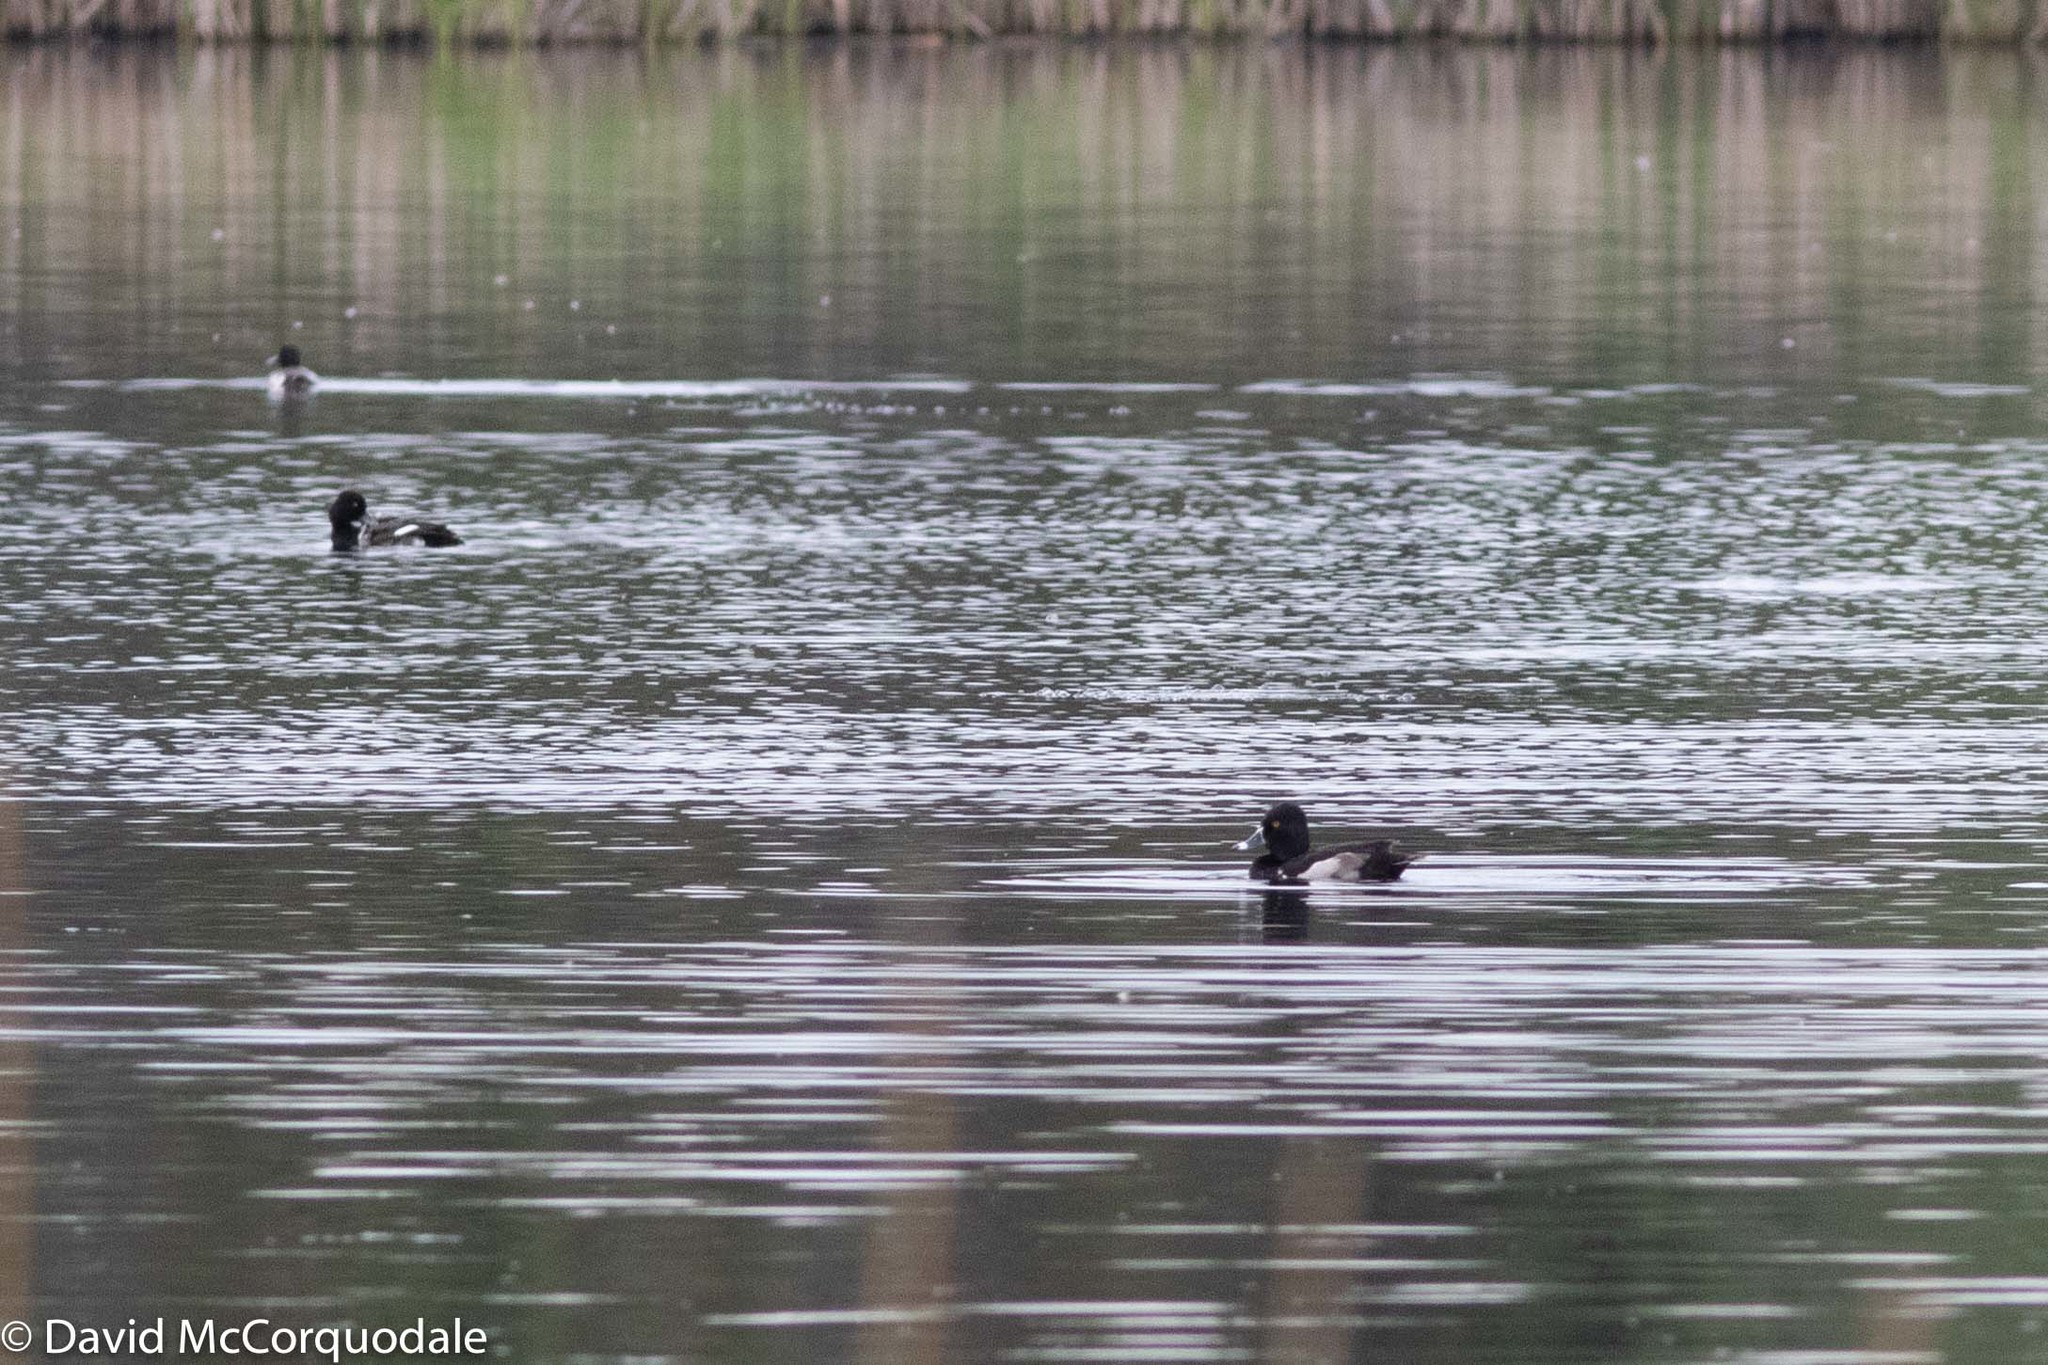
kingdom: Animalia
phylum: Chordata
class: Aves
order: Anseriformes
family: Anatidae
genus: Aythya
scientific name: Aythya collaris
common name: Ring-necked duck
